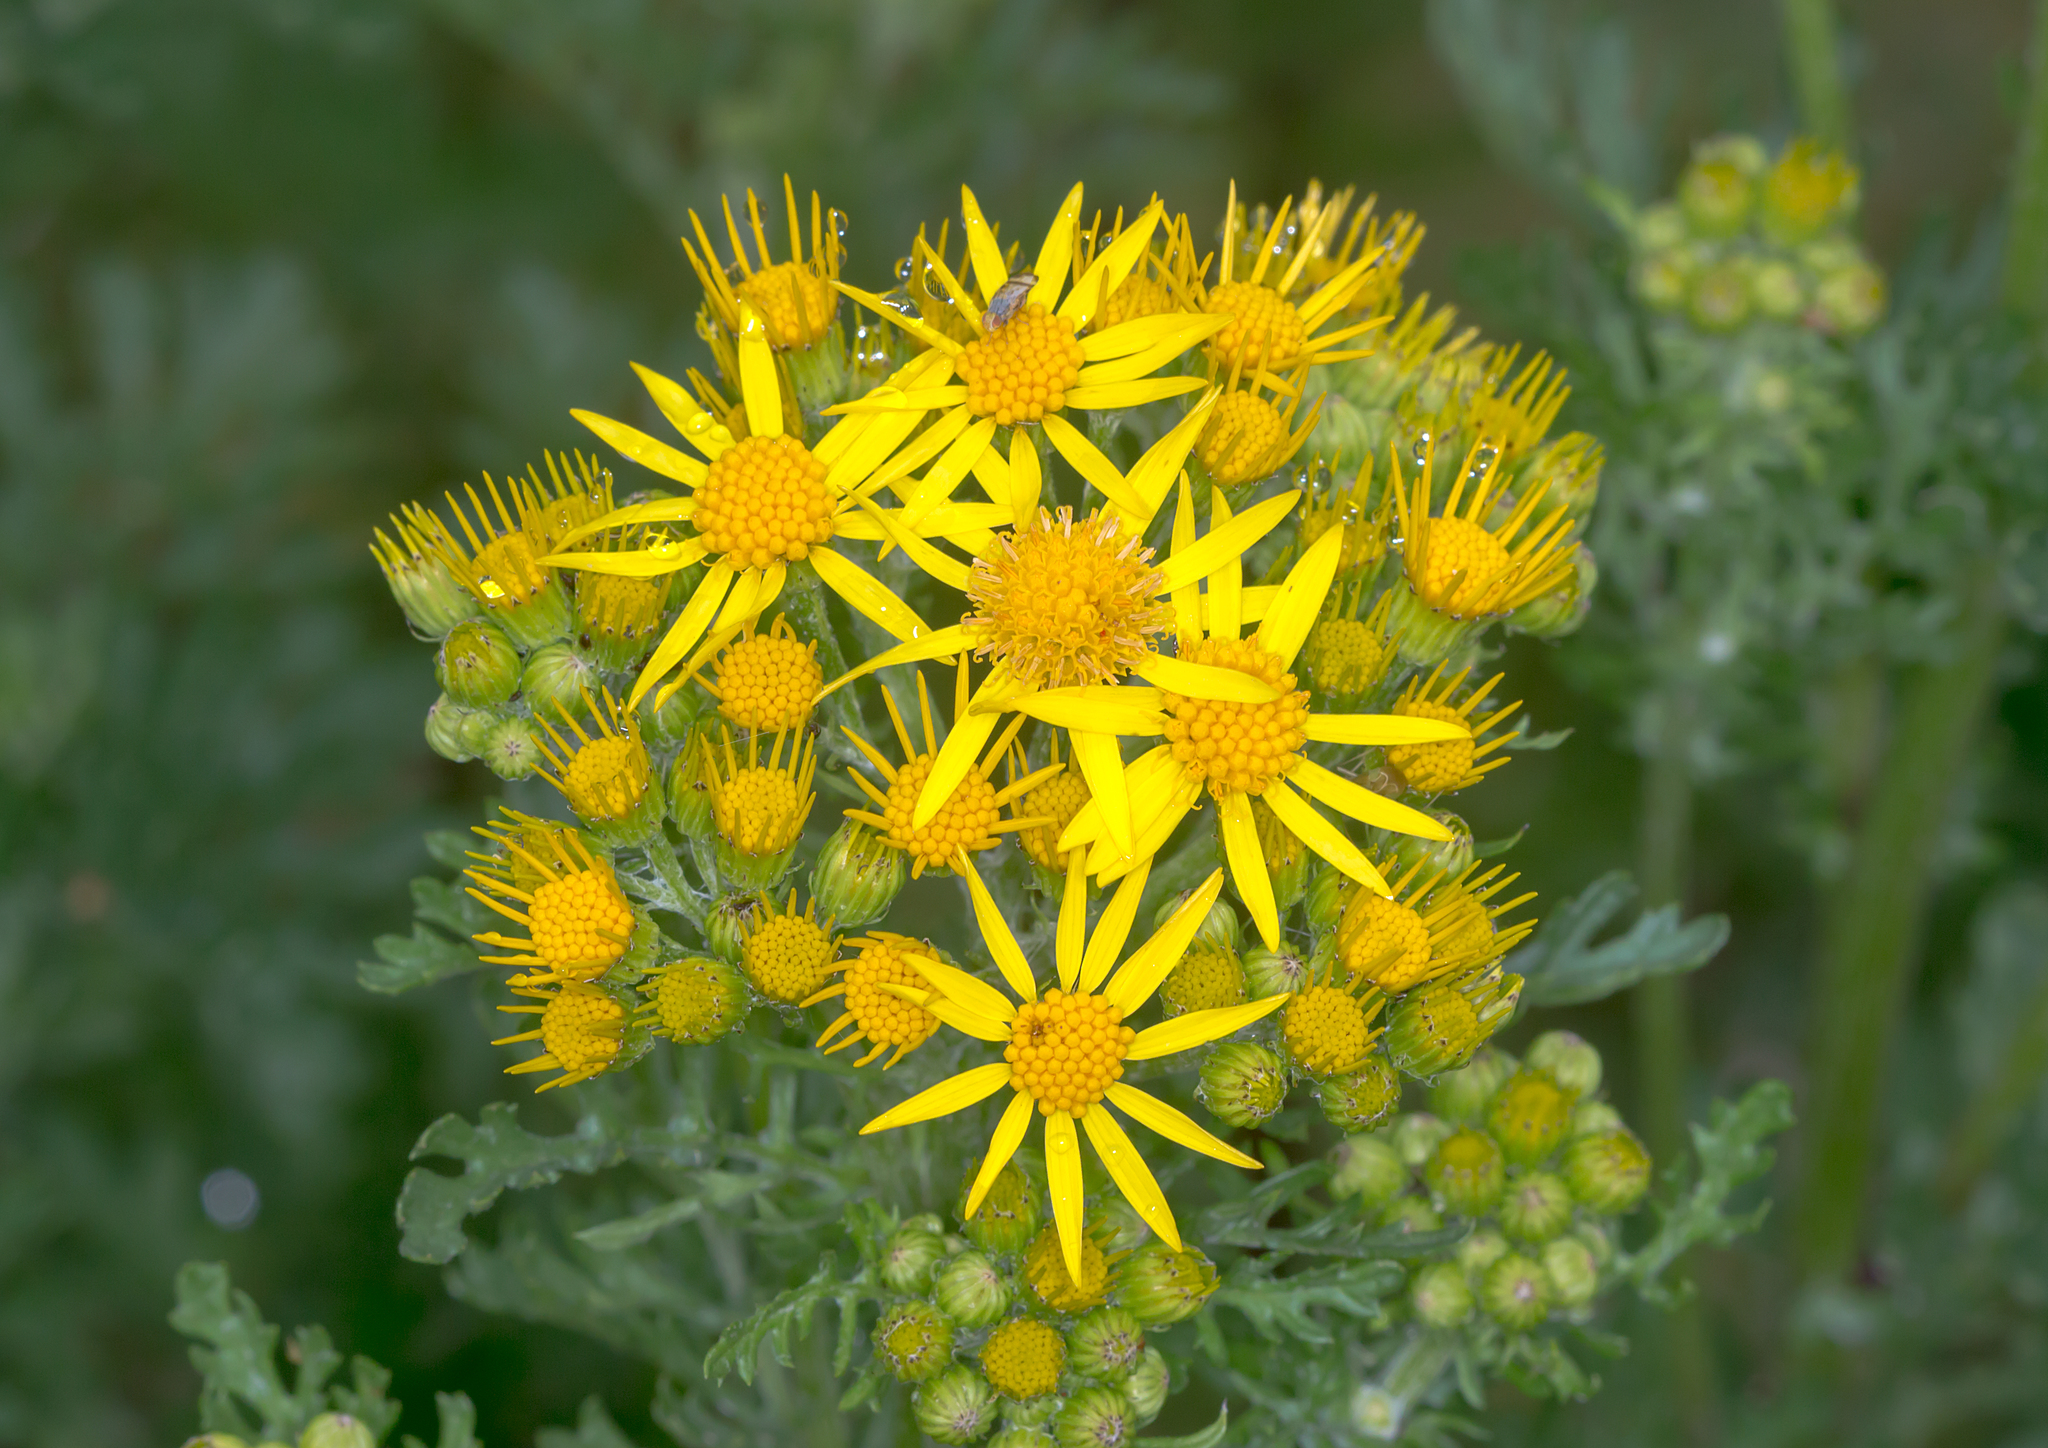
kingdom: Plantae
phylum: Tracheophyta
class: Magnoliopsida
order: Asterales
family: Asteraceae
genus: Jacobaea
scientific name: Jacobaea vulgaris
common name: Stinking willie
